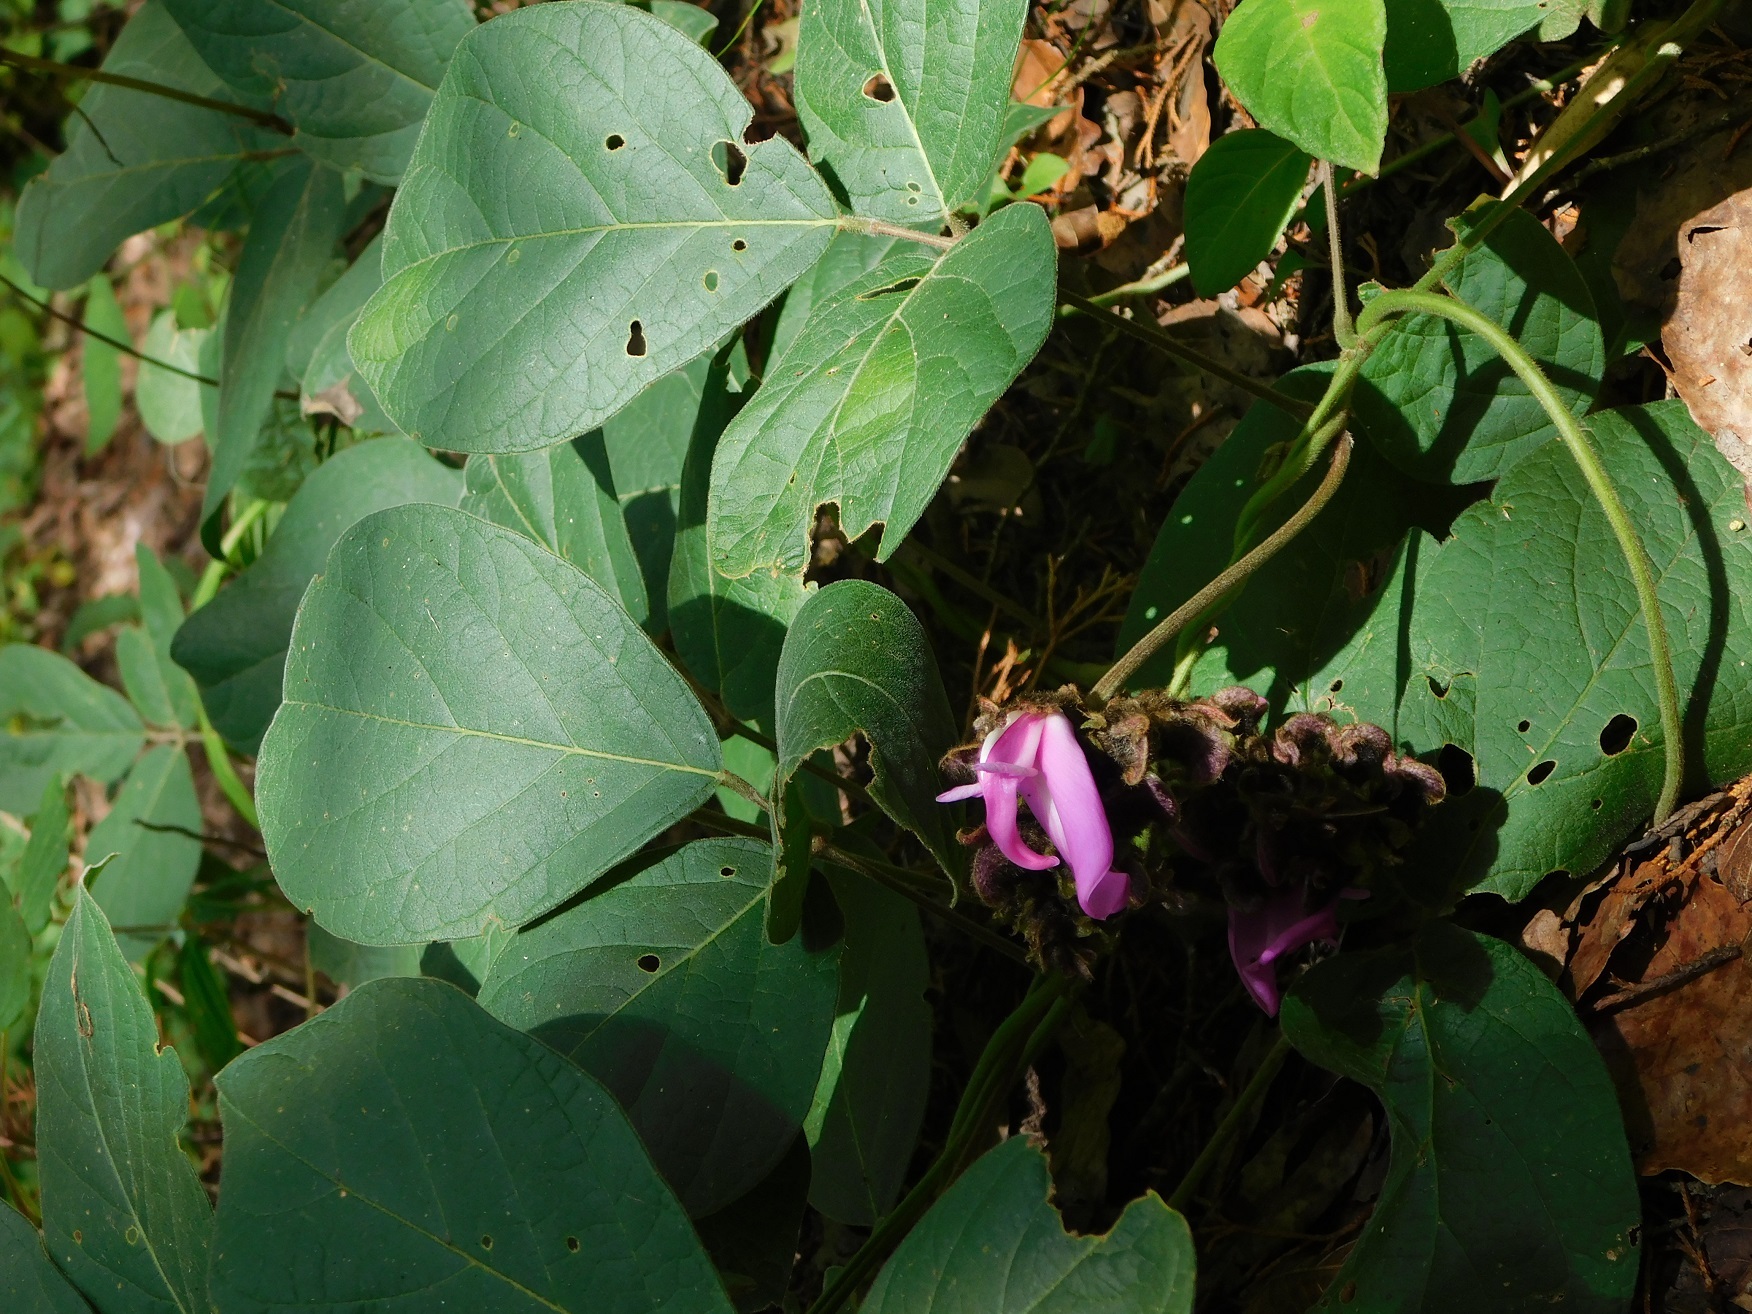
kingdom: Plantae
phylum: Tracheophyta
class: Magnoliopsida
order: Fabales
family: Fabaceae
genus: Canavalia
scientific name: Canavalia hirsutissima
